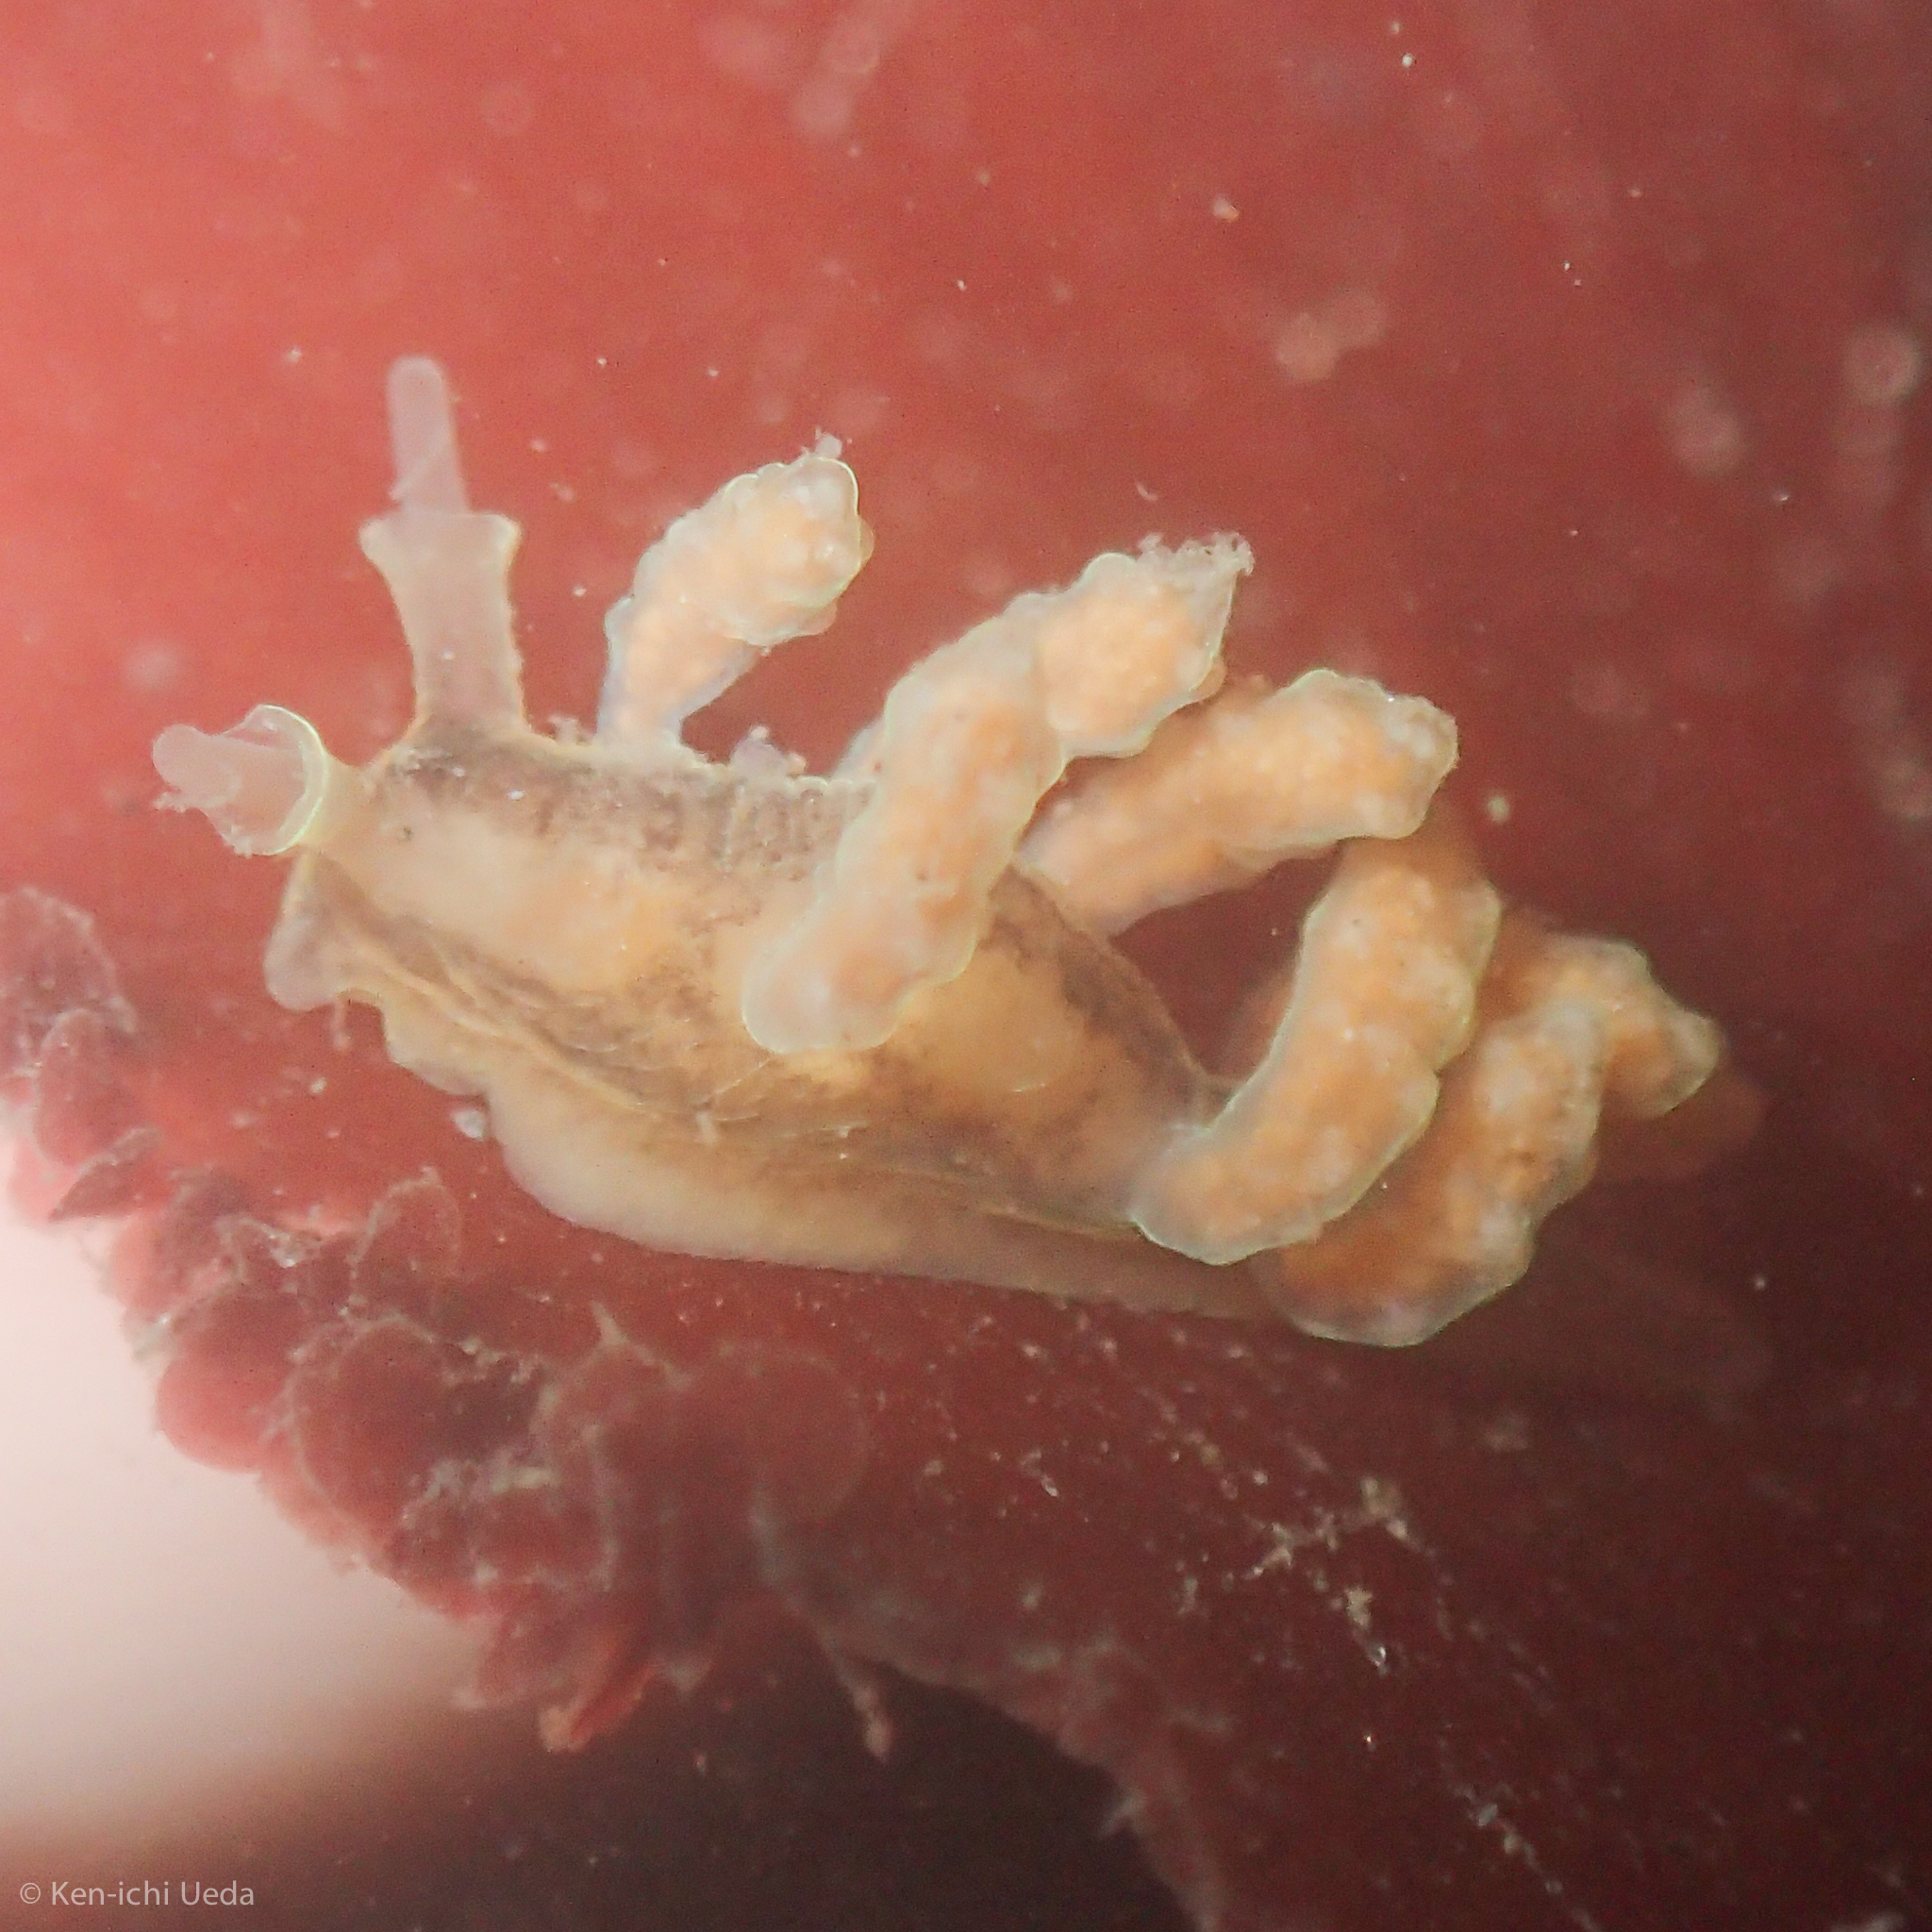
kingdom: Animalia
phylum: Mollusca
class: Gastropoda
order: Nudibranchia
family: Dotidae
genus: Doto
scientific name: Doto columbiana
